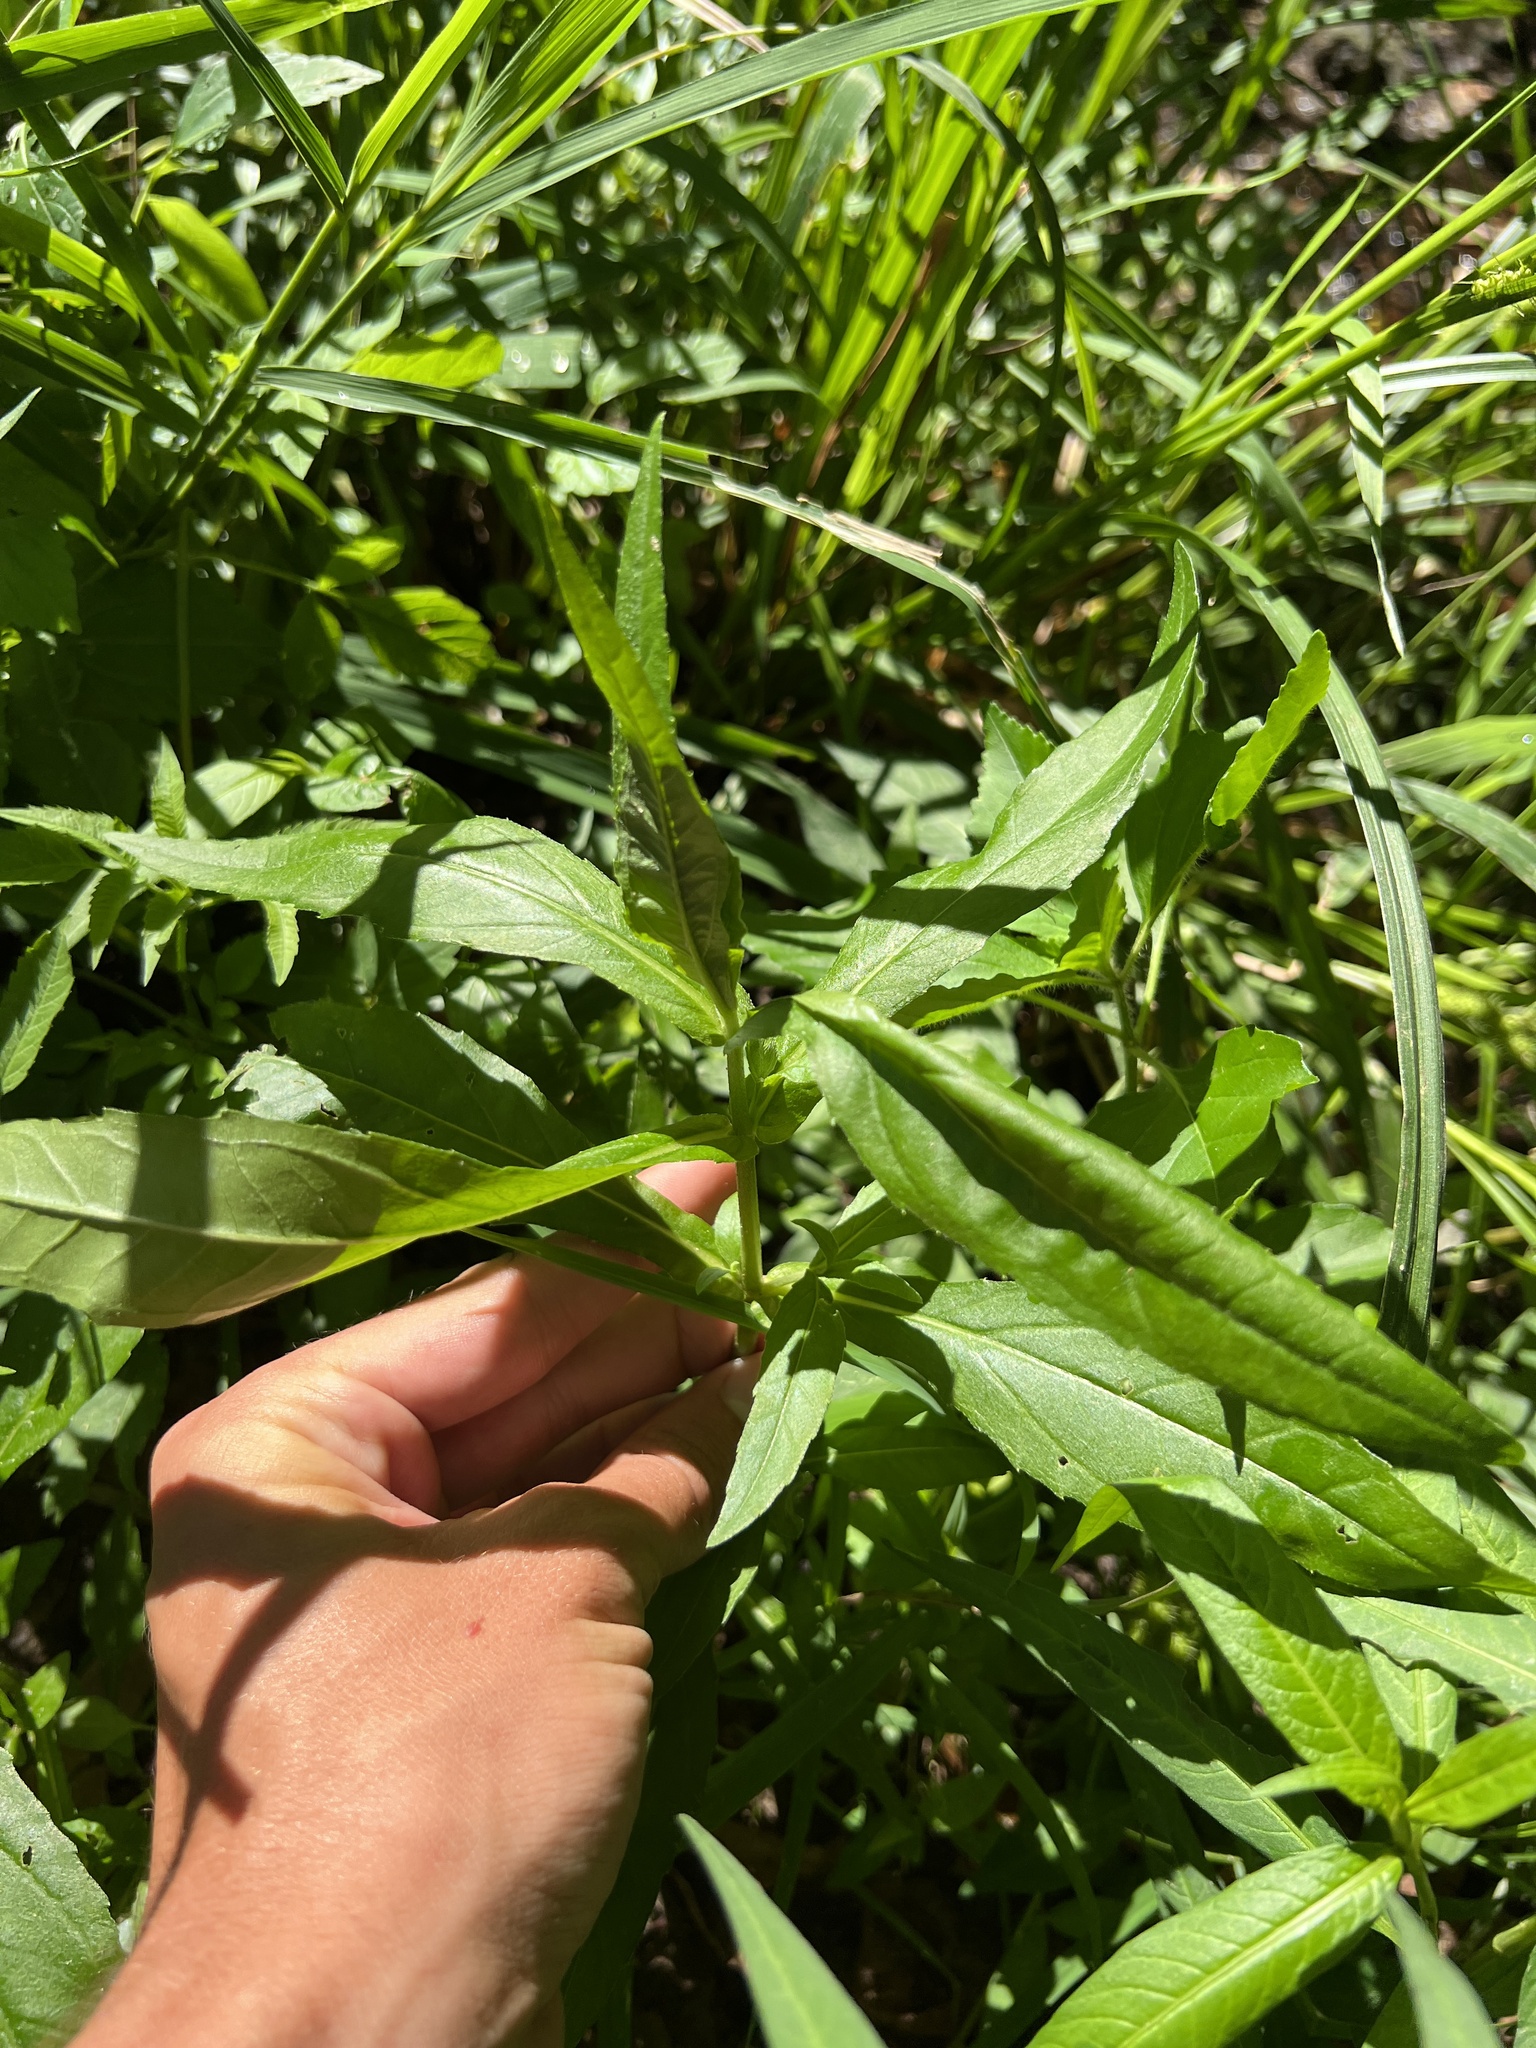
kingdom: Plantae
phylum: Tracheophyta
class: Magnoliopsida
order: Asterales
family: Asteraceae
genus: Bidens
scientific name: Bidens cernua
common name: Nodding bur-marigold
